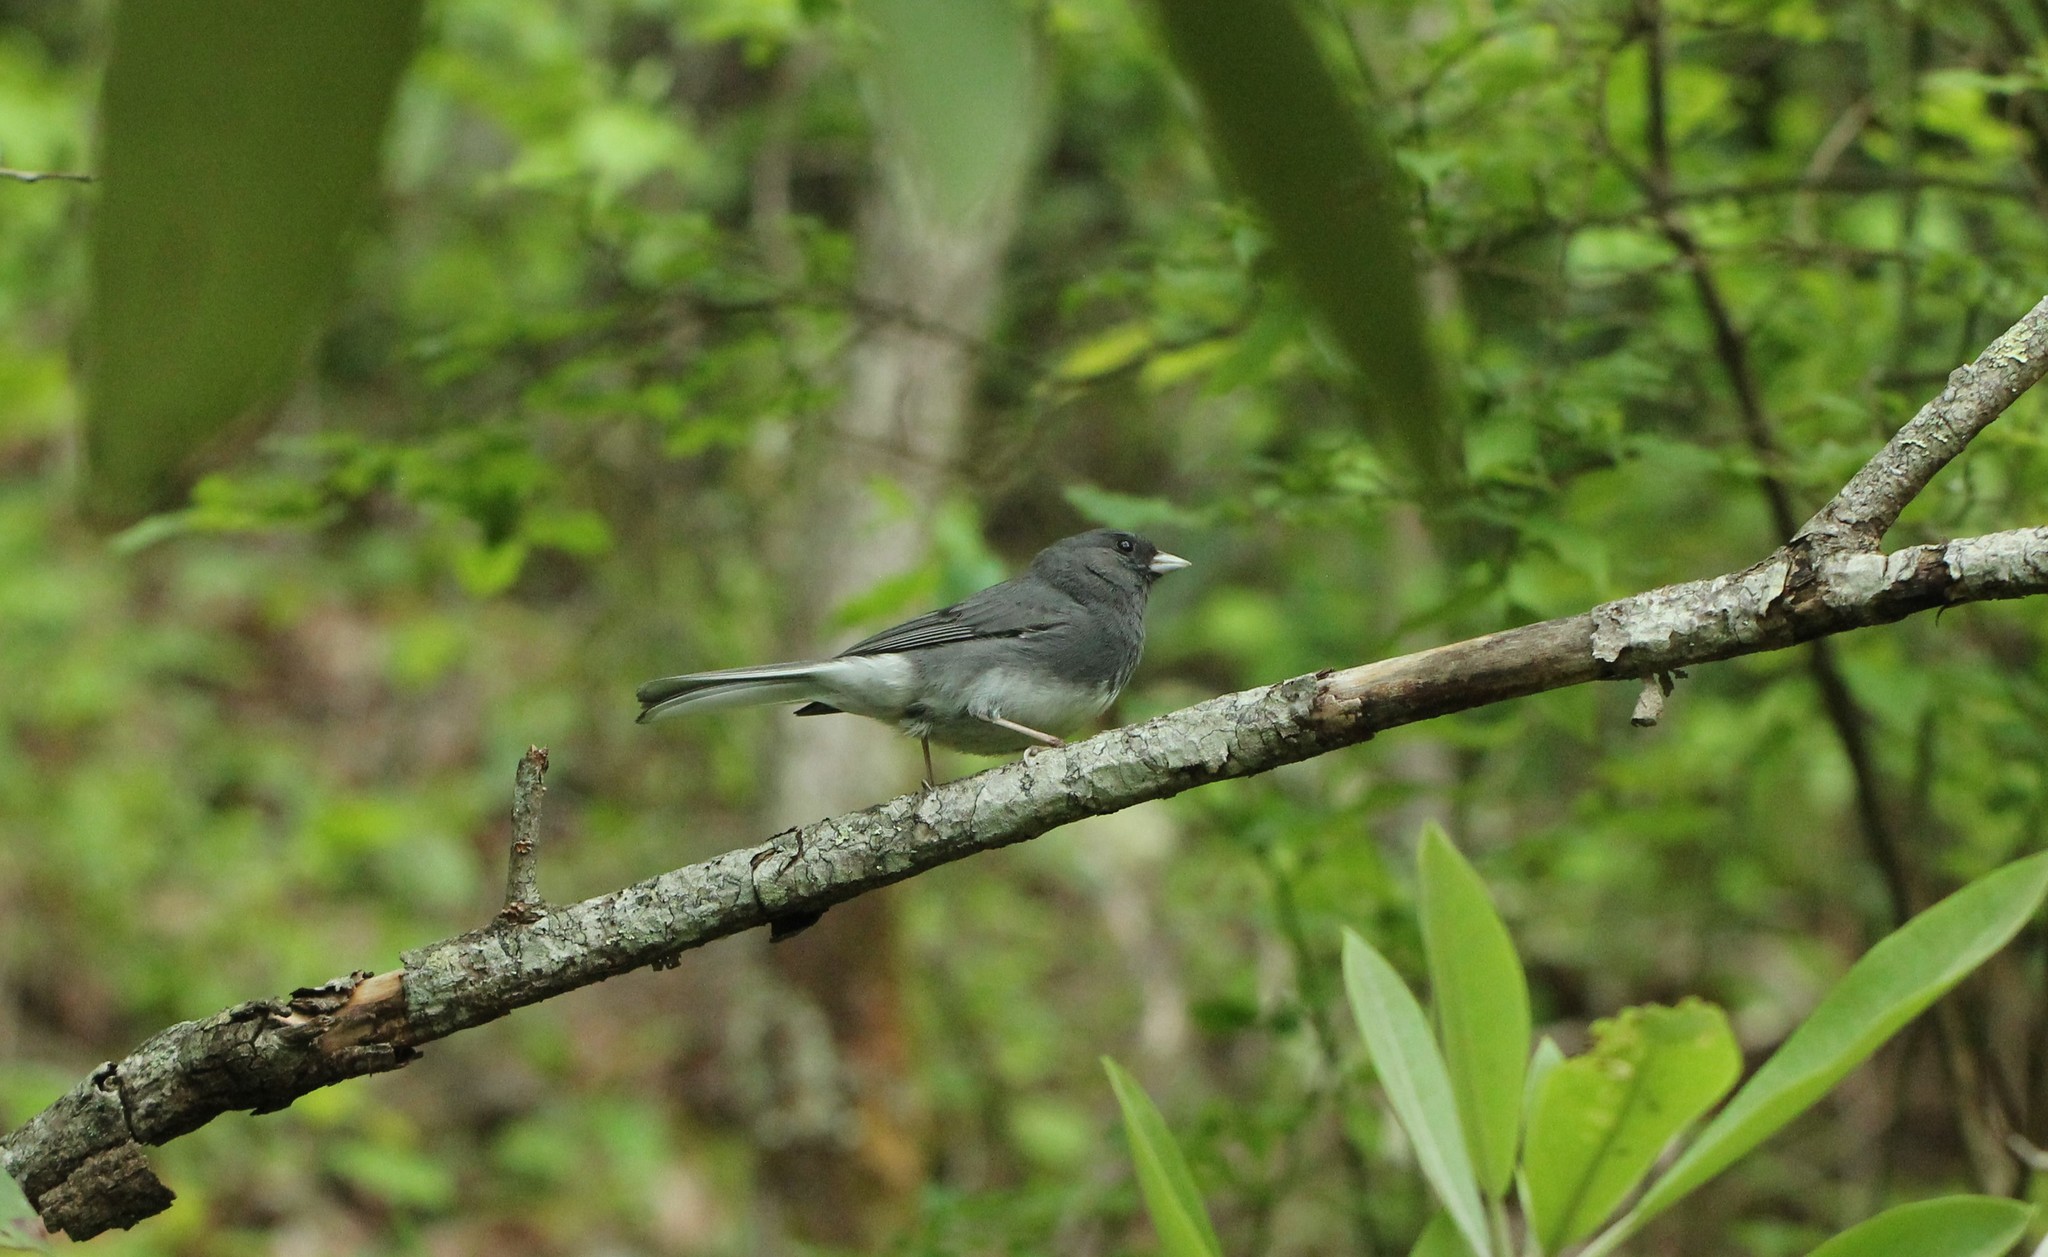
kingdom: Animalia
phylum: Chordata
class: Aves
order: Passeriformes
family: Passerellidae
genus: Junco
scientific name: Junco hyemalis
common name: Dark-eyed junco
